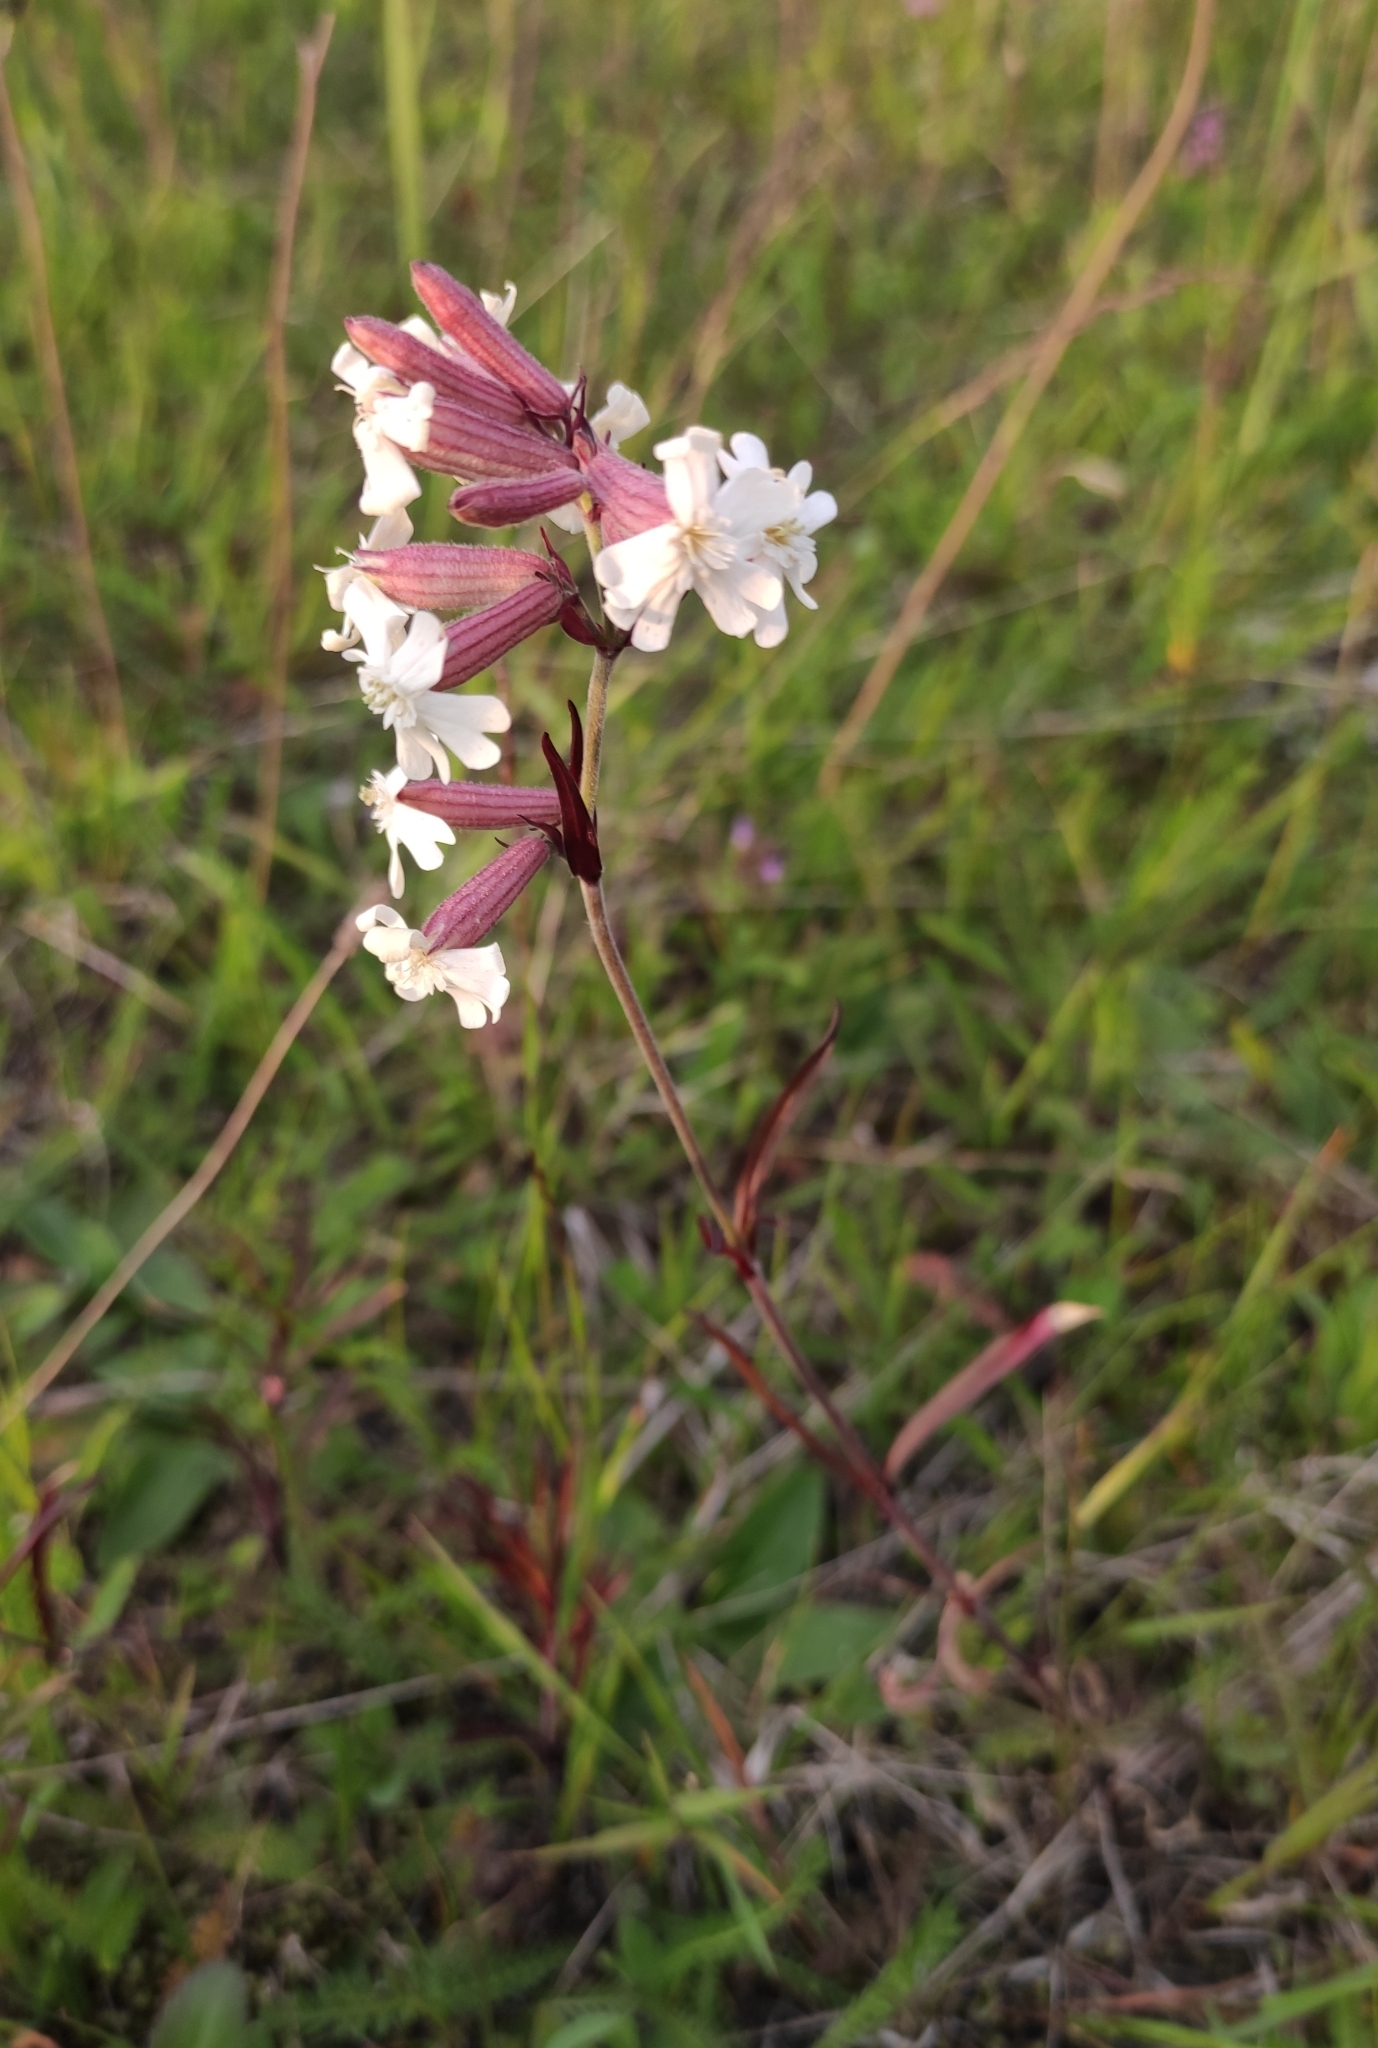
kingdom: Plantae
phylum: Tracheophyta
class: Magnoliopsida
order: Caryophyllales
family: Caryophyllaceae
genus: Silene
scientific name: Silene amoena
